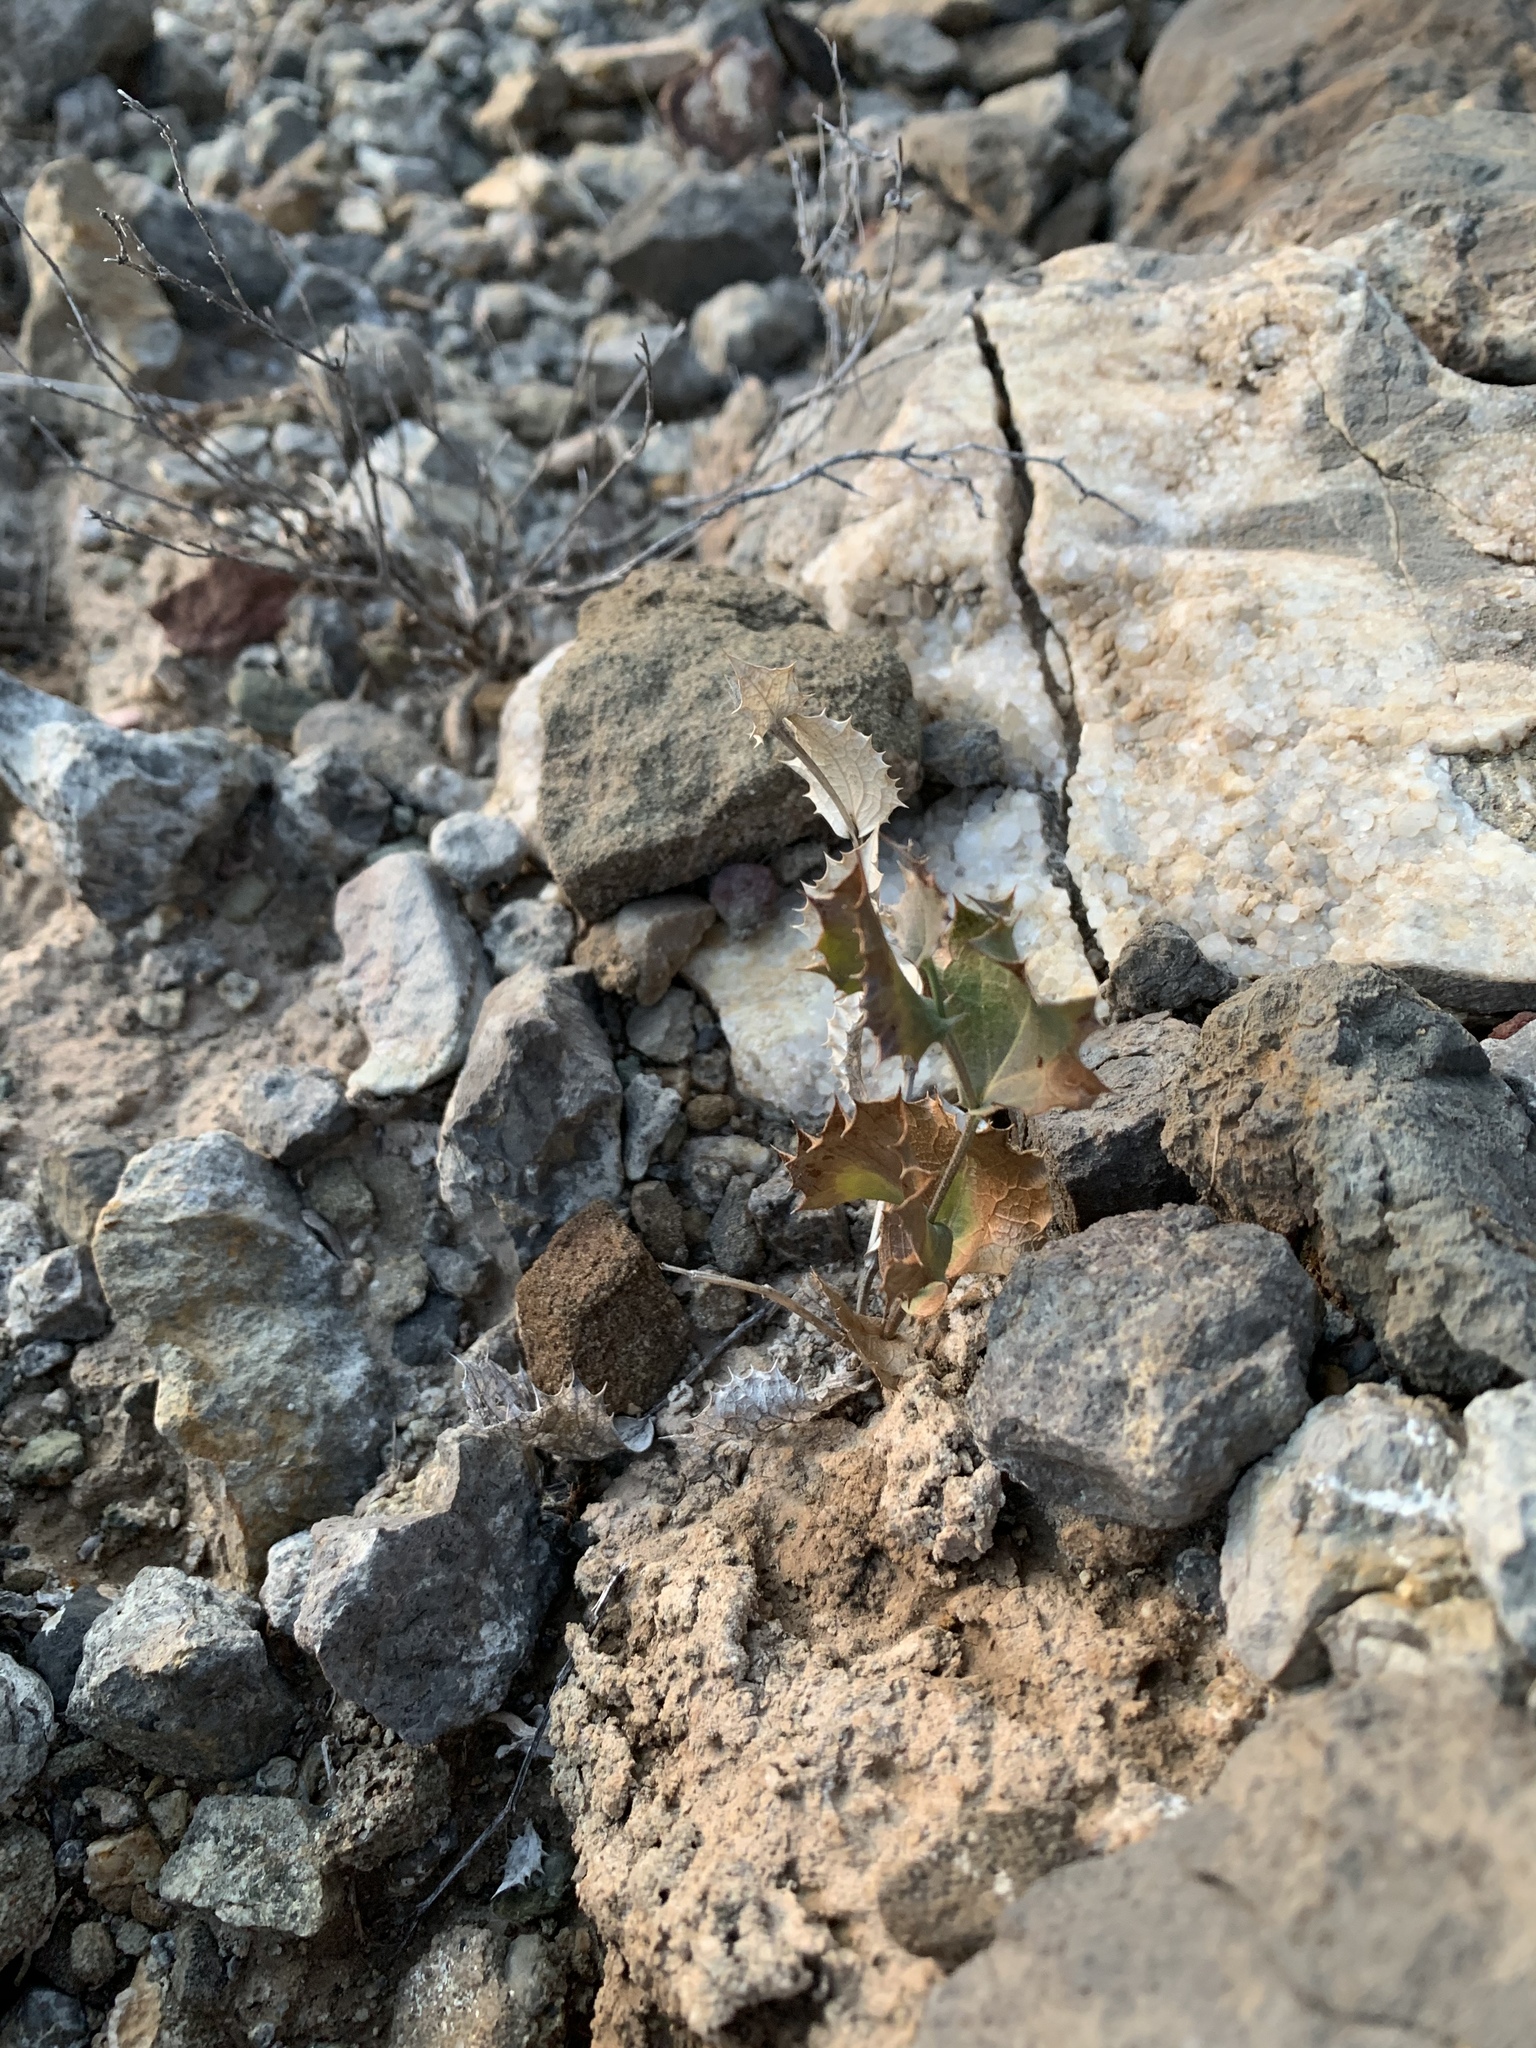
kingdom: Plantae
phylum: Tracheophyta
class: Magnoliopsida
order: Asterales
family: Asteraceae
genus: Acourtia
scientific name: Acourtia nana
